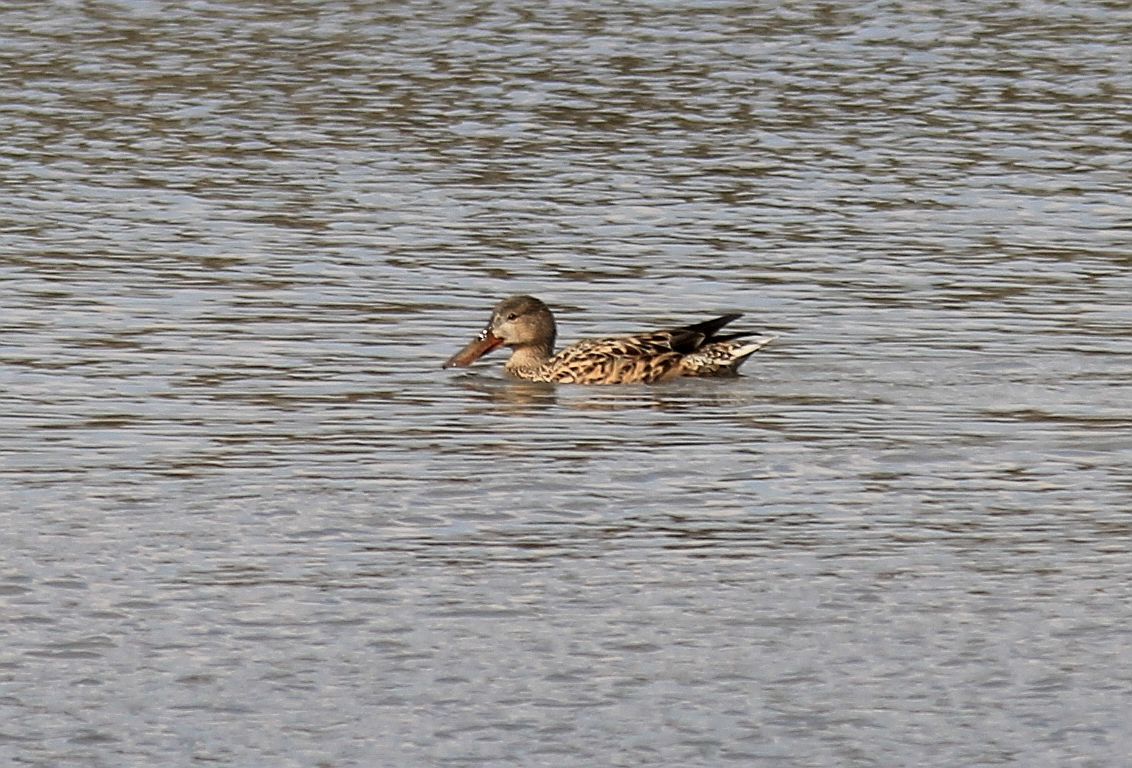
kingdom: Animalia
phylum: Chordata
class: Aves
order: Anseriformes
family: Anatidae
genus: Spatula
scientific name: Spatula clypeata
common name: Northern shoveler
